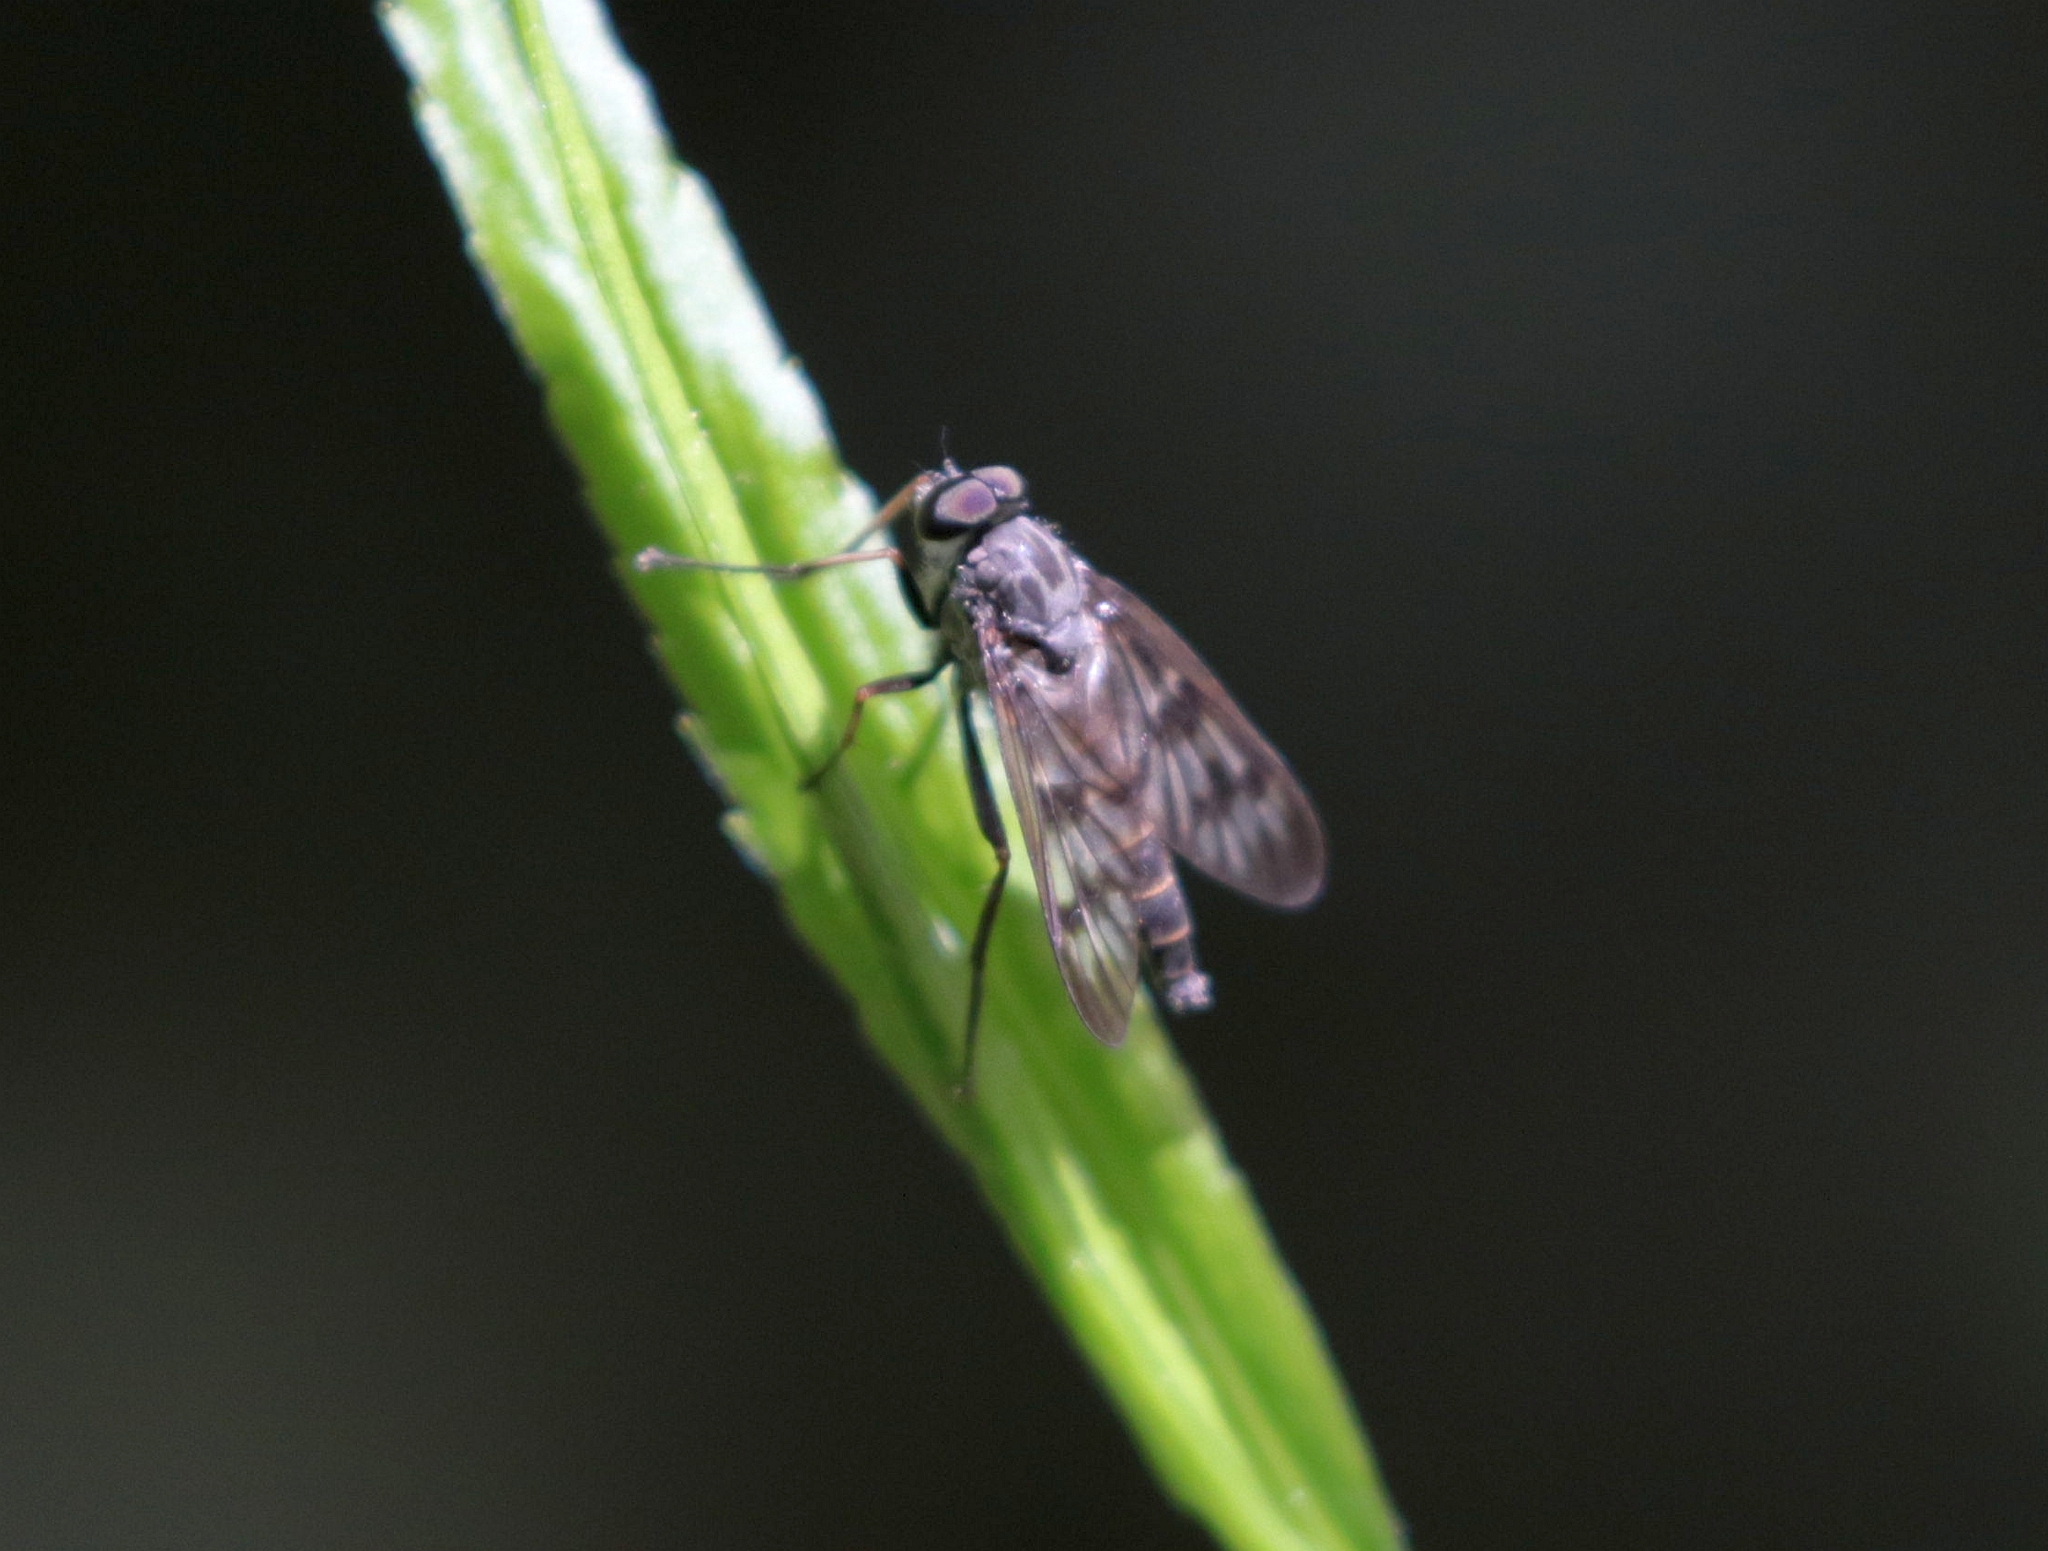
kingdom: Animalia
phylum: Arthropoda
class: Insecta
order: Diptera
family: Rhagionidae
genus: Rhagio
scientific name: Rhagio mystaceus
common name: Common snipe fly
